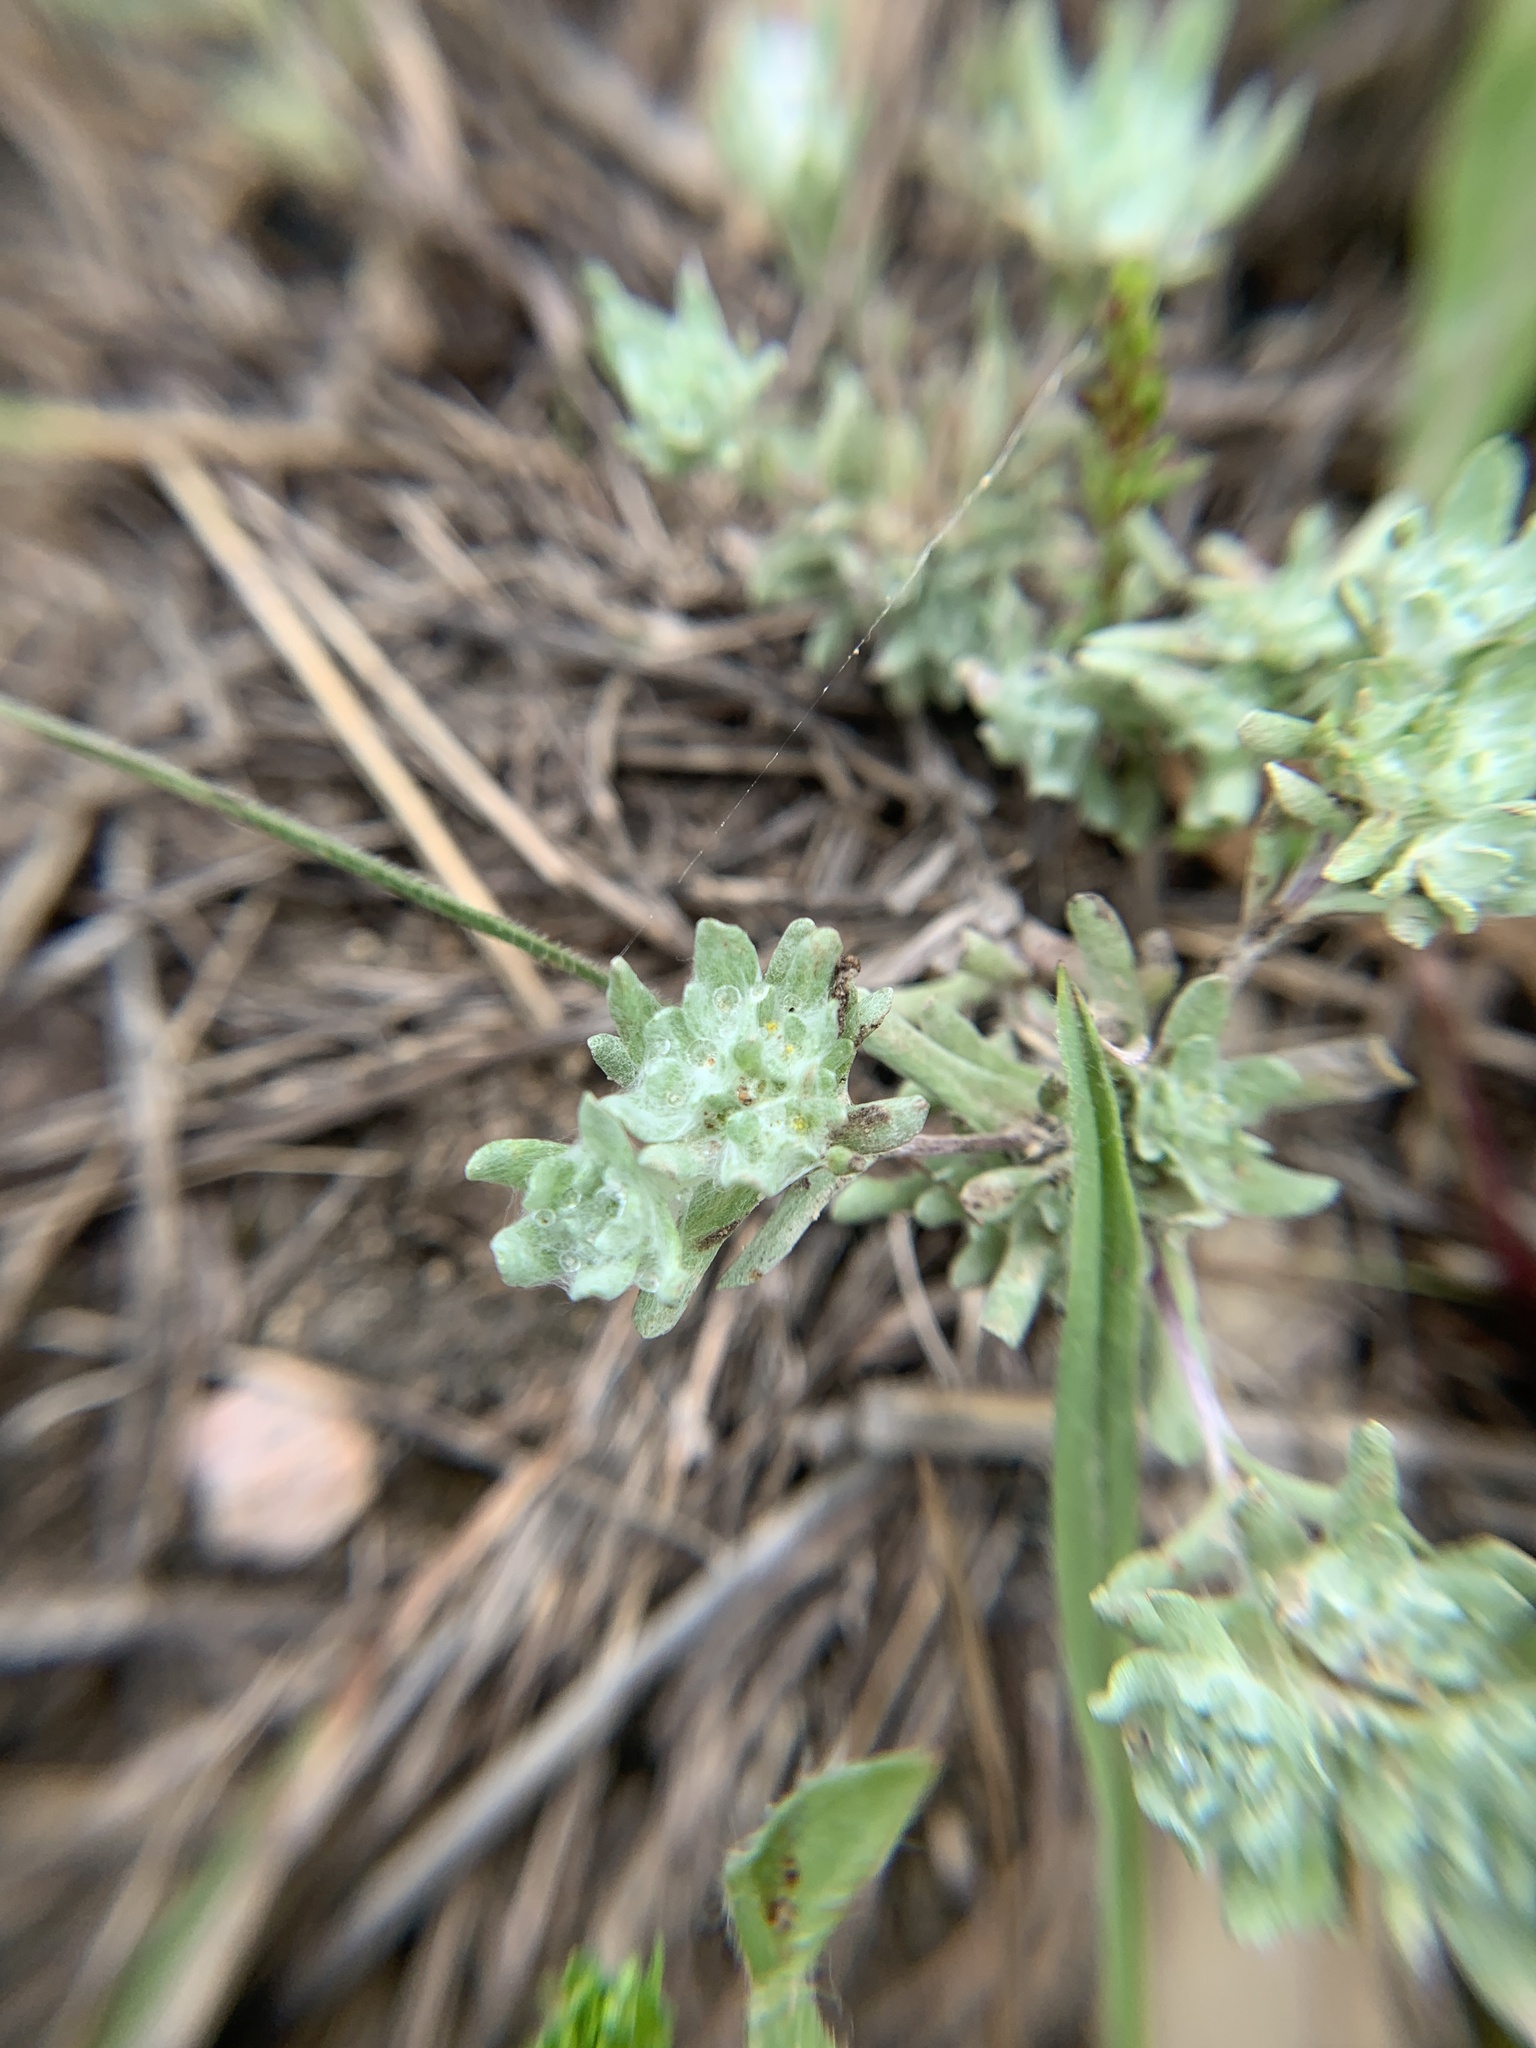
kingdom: Plantae
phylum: Tracheophyta
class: Magnoliopsida
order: Asterales
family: Asteraceae
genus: Diaperia
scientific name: Diaperia prolifera
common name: Big-head rabbit-tobacco
